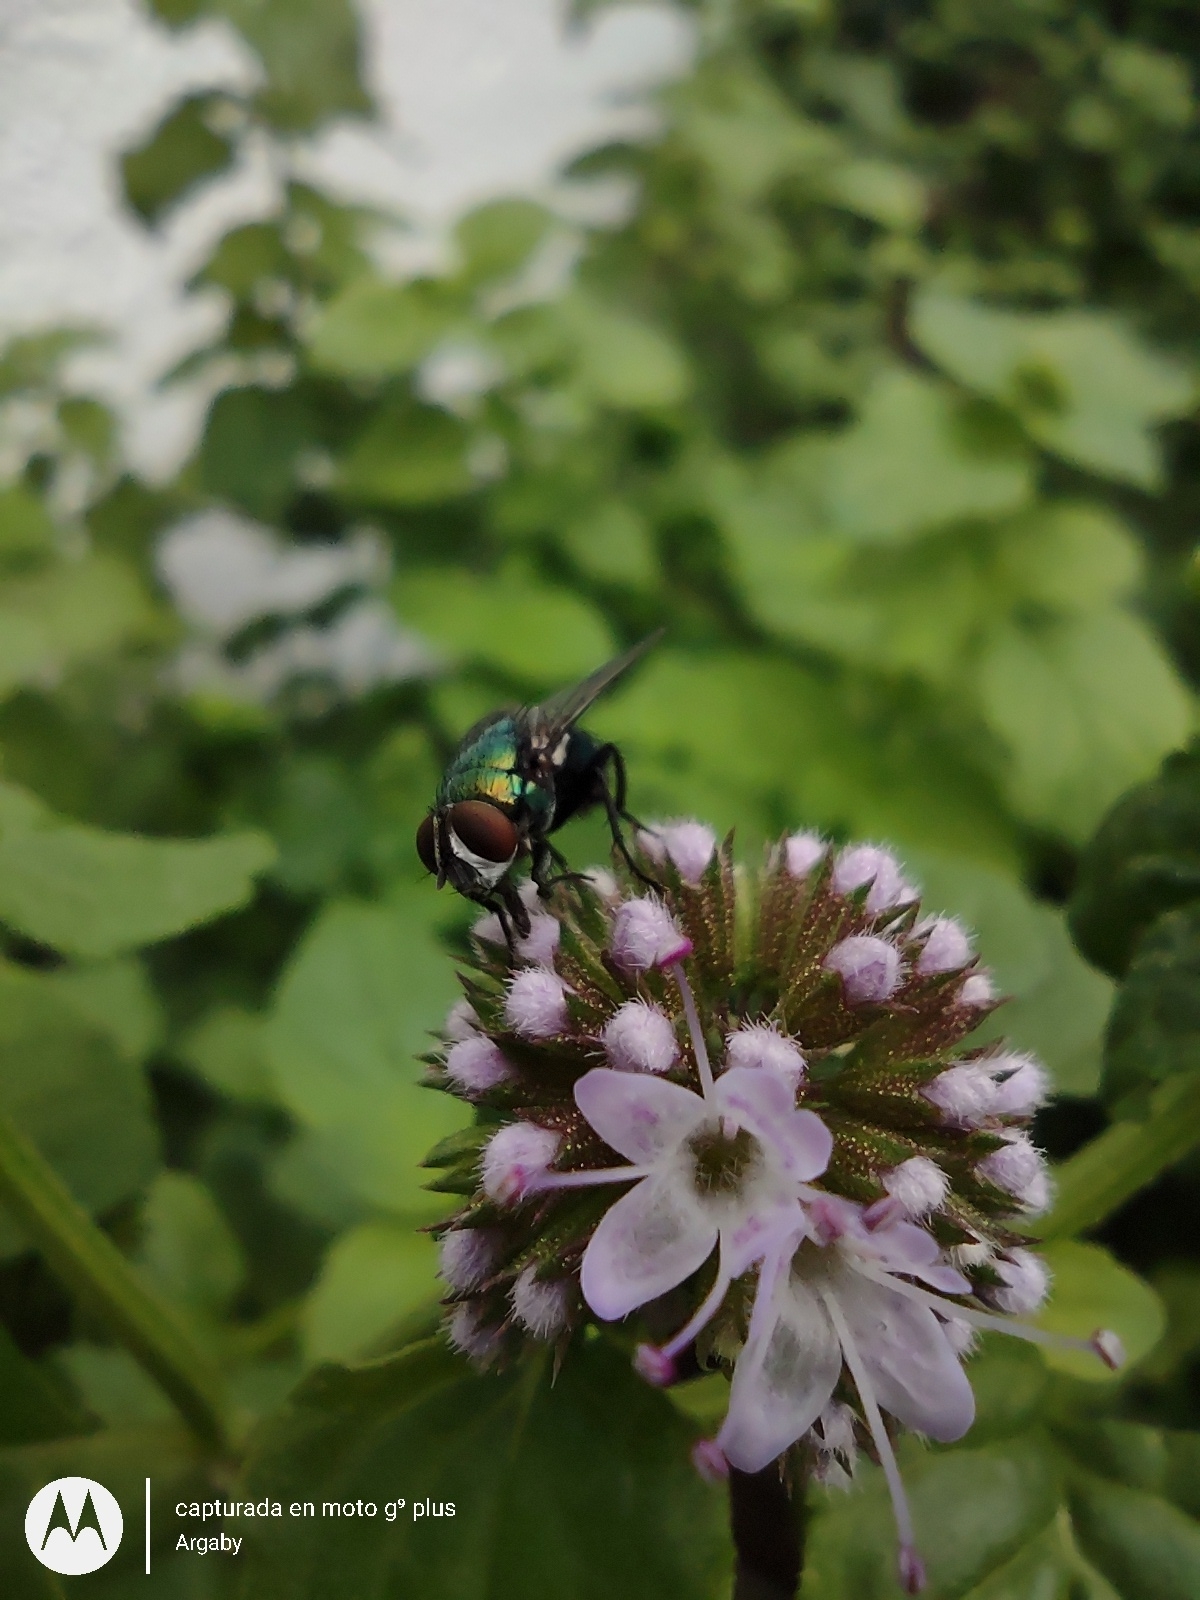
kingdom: Animalia
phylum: Arthropoda
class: Insecta
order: Diptera
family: Calliphoridae
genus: Lucilia
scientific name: Lucilia cuprina
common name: Sheep blow fly
